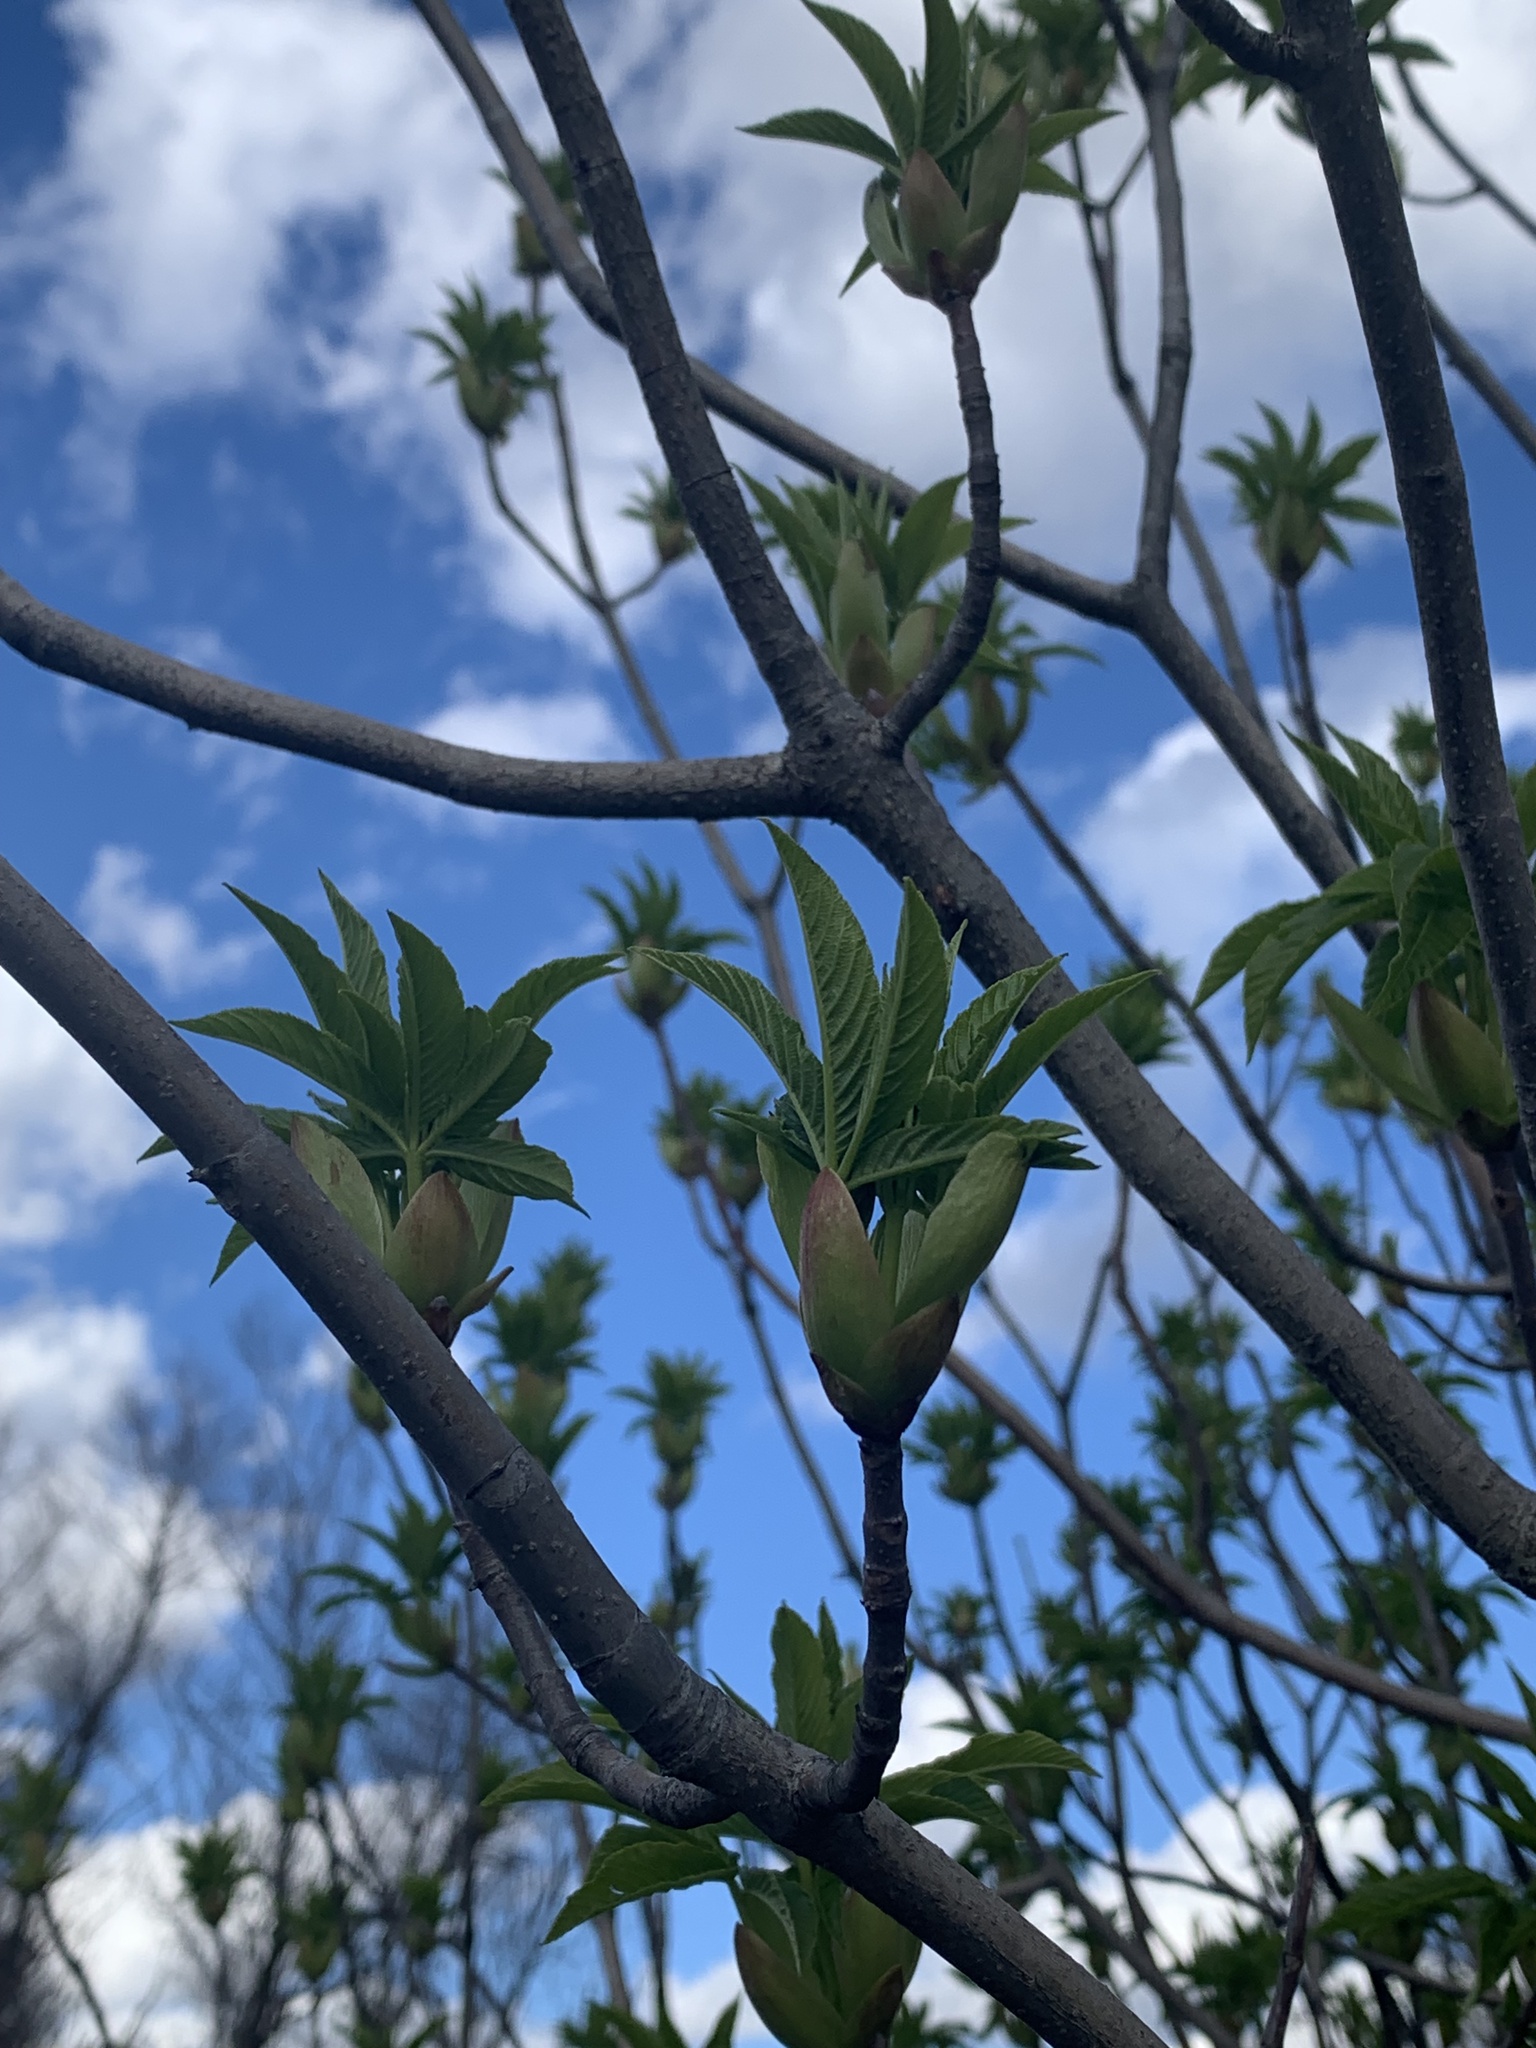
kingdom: Plantae
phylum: Tracheophyta
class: Magnoliopsida
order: Sapindales
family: Sapindaceae
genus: Aesculus
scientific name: Aesculus californica
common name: California buckeye
